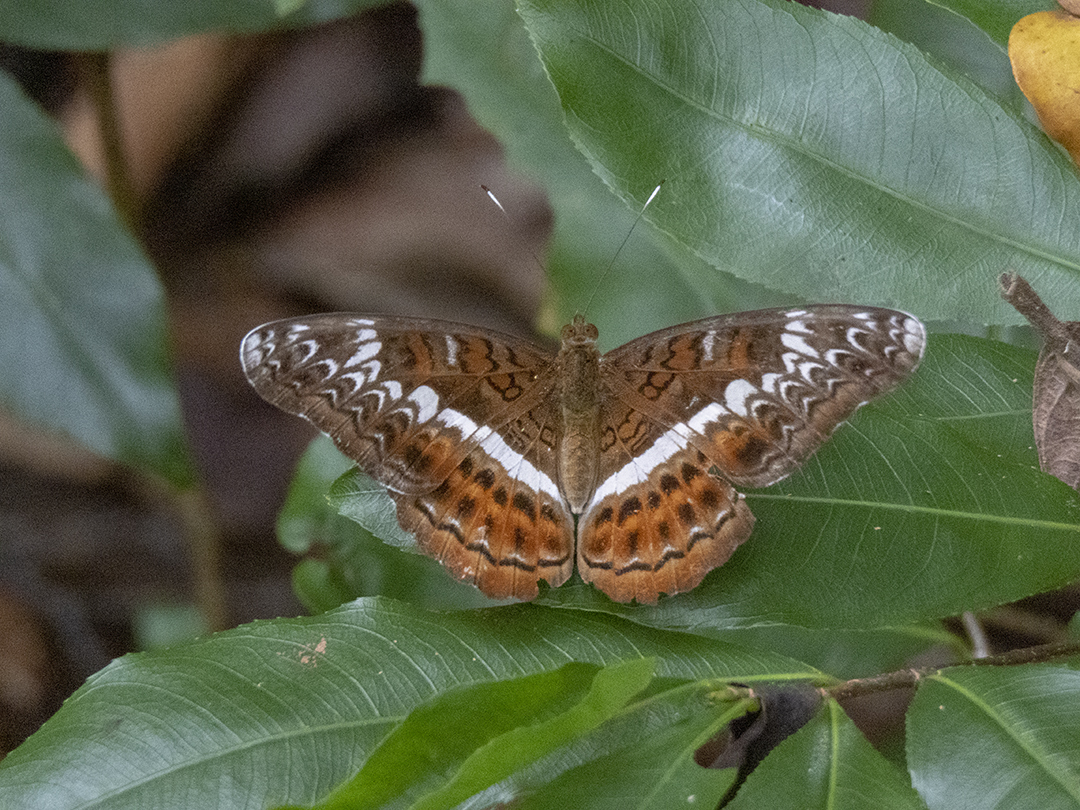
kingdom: Animalia
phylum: Arthropoda
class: Insecta
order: Lepidoptera
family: Nymphalidae
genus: Lebadea
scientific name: Lebadea martha
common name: Knight
